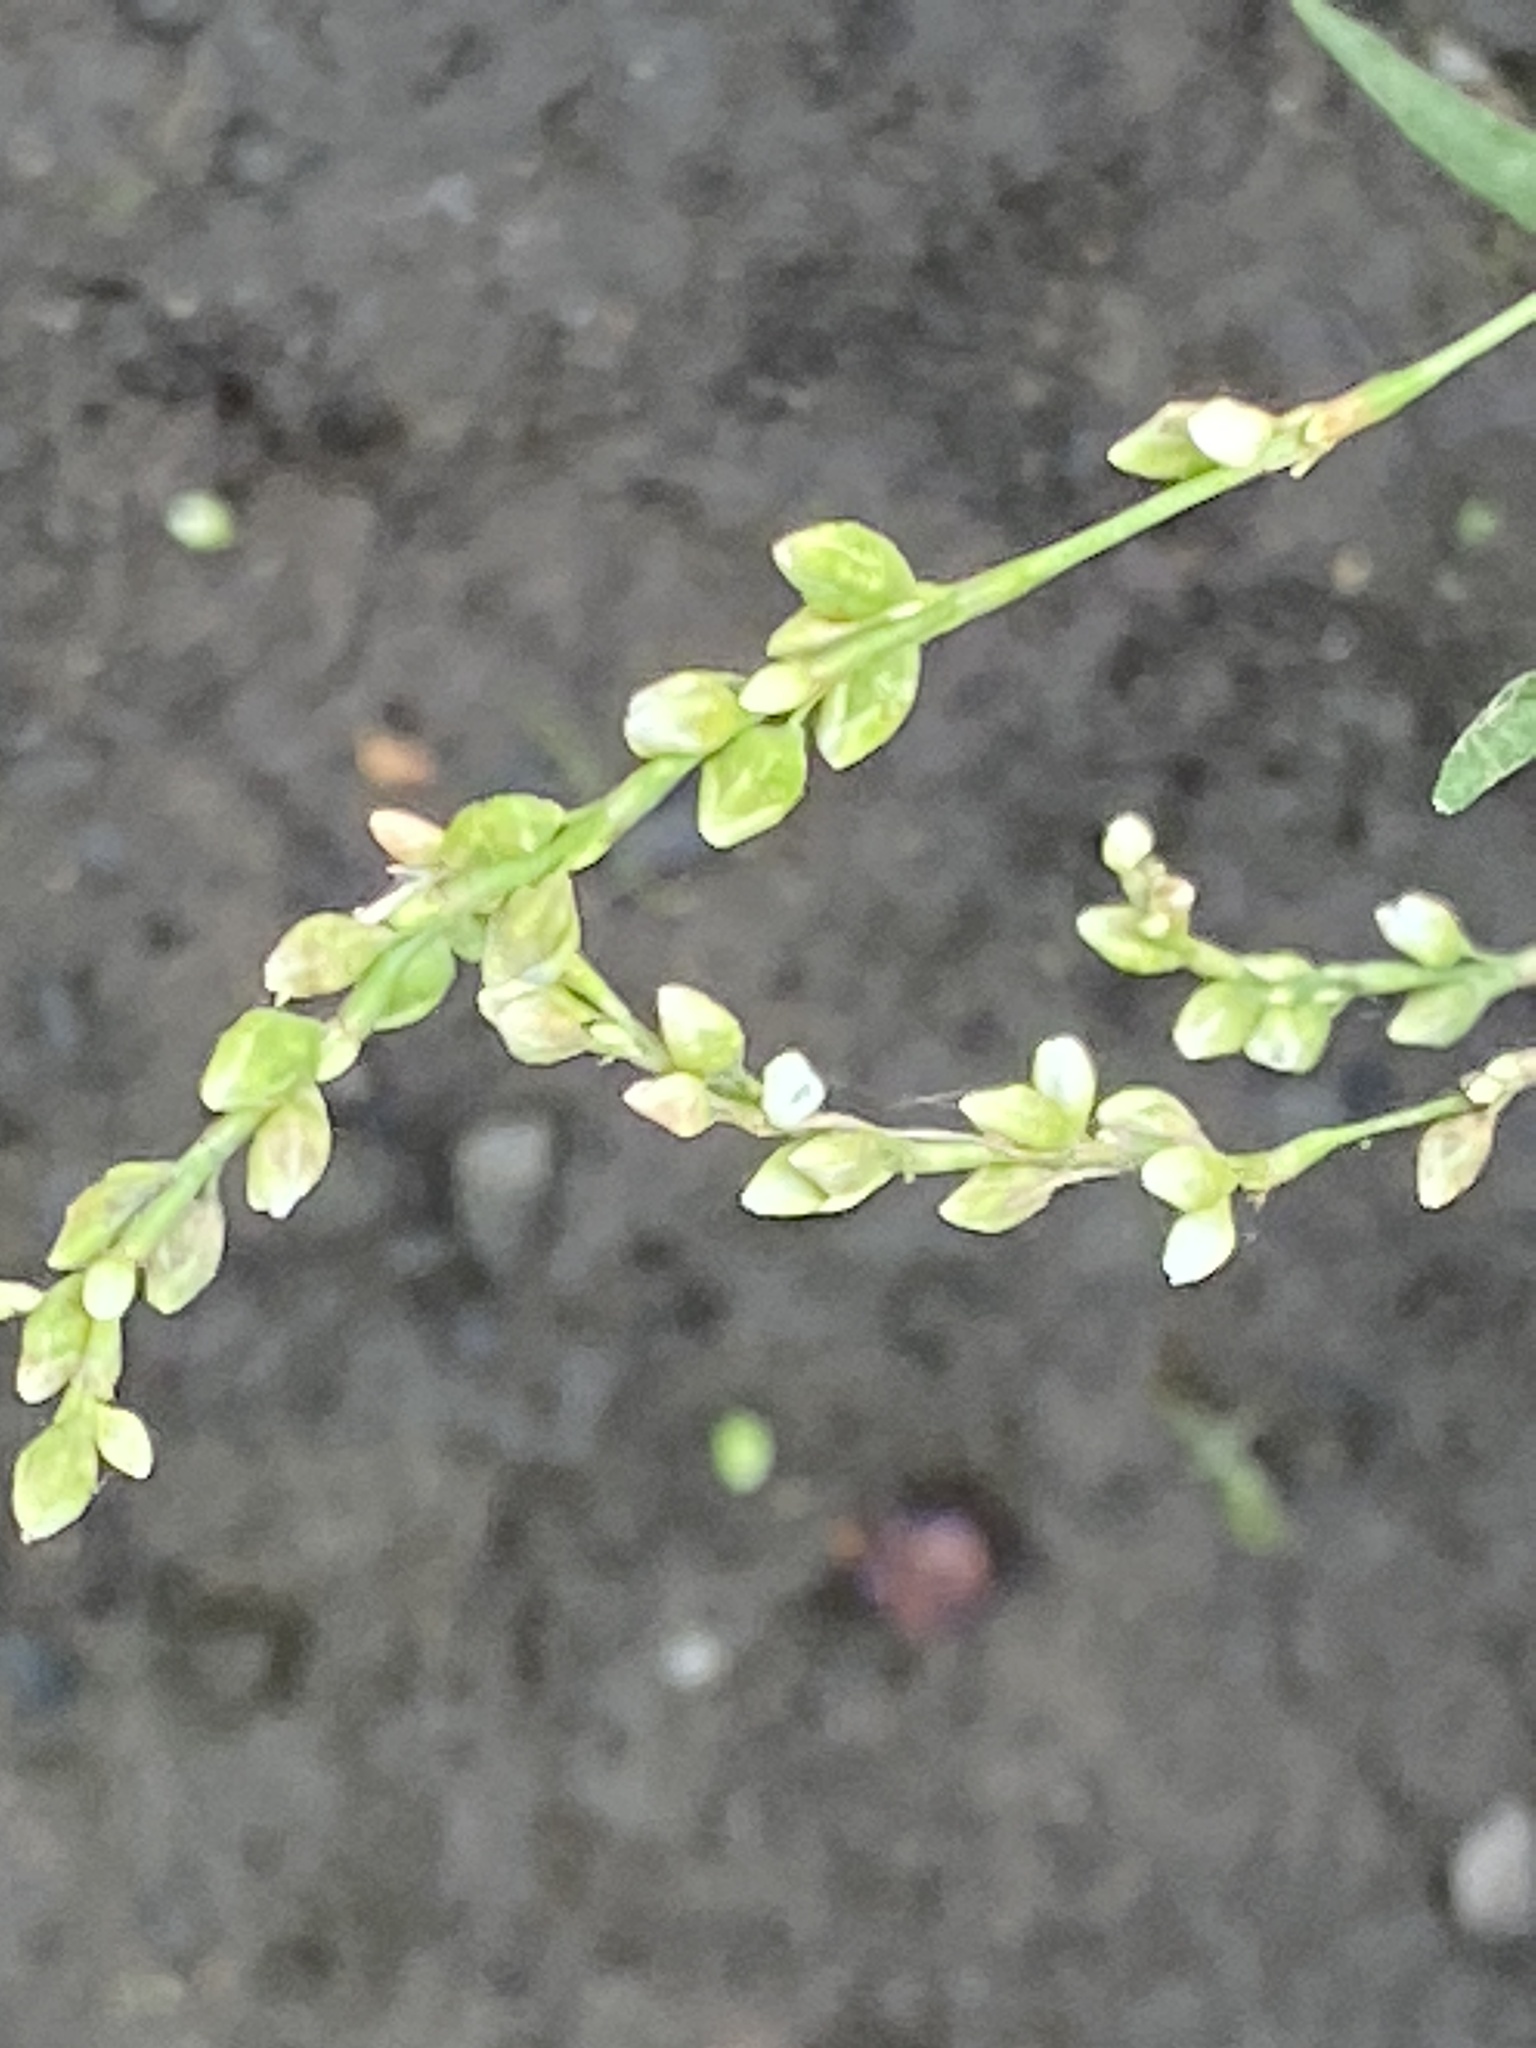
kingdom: Plantae
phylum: Tracheophyta
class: Magnoliopsida
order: Caryophyllales
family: Polygonaceae
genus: Persicaria
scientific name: Persicaria punctata
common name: Dotted smartweed
